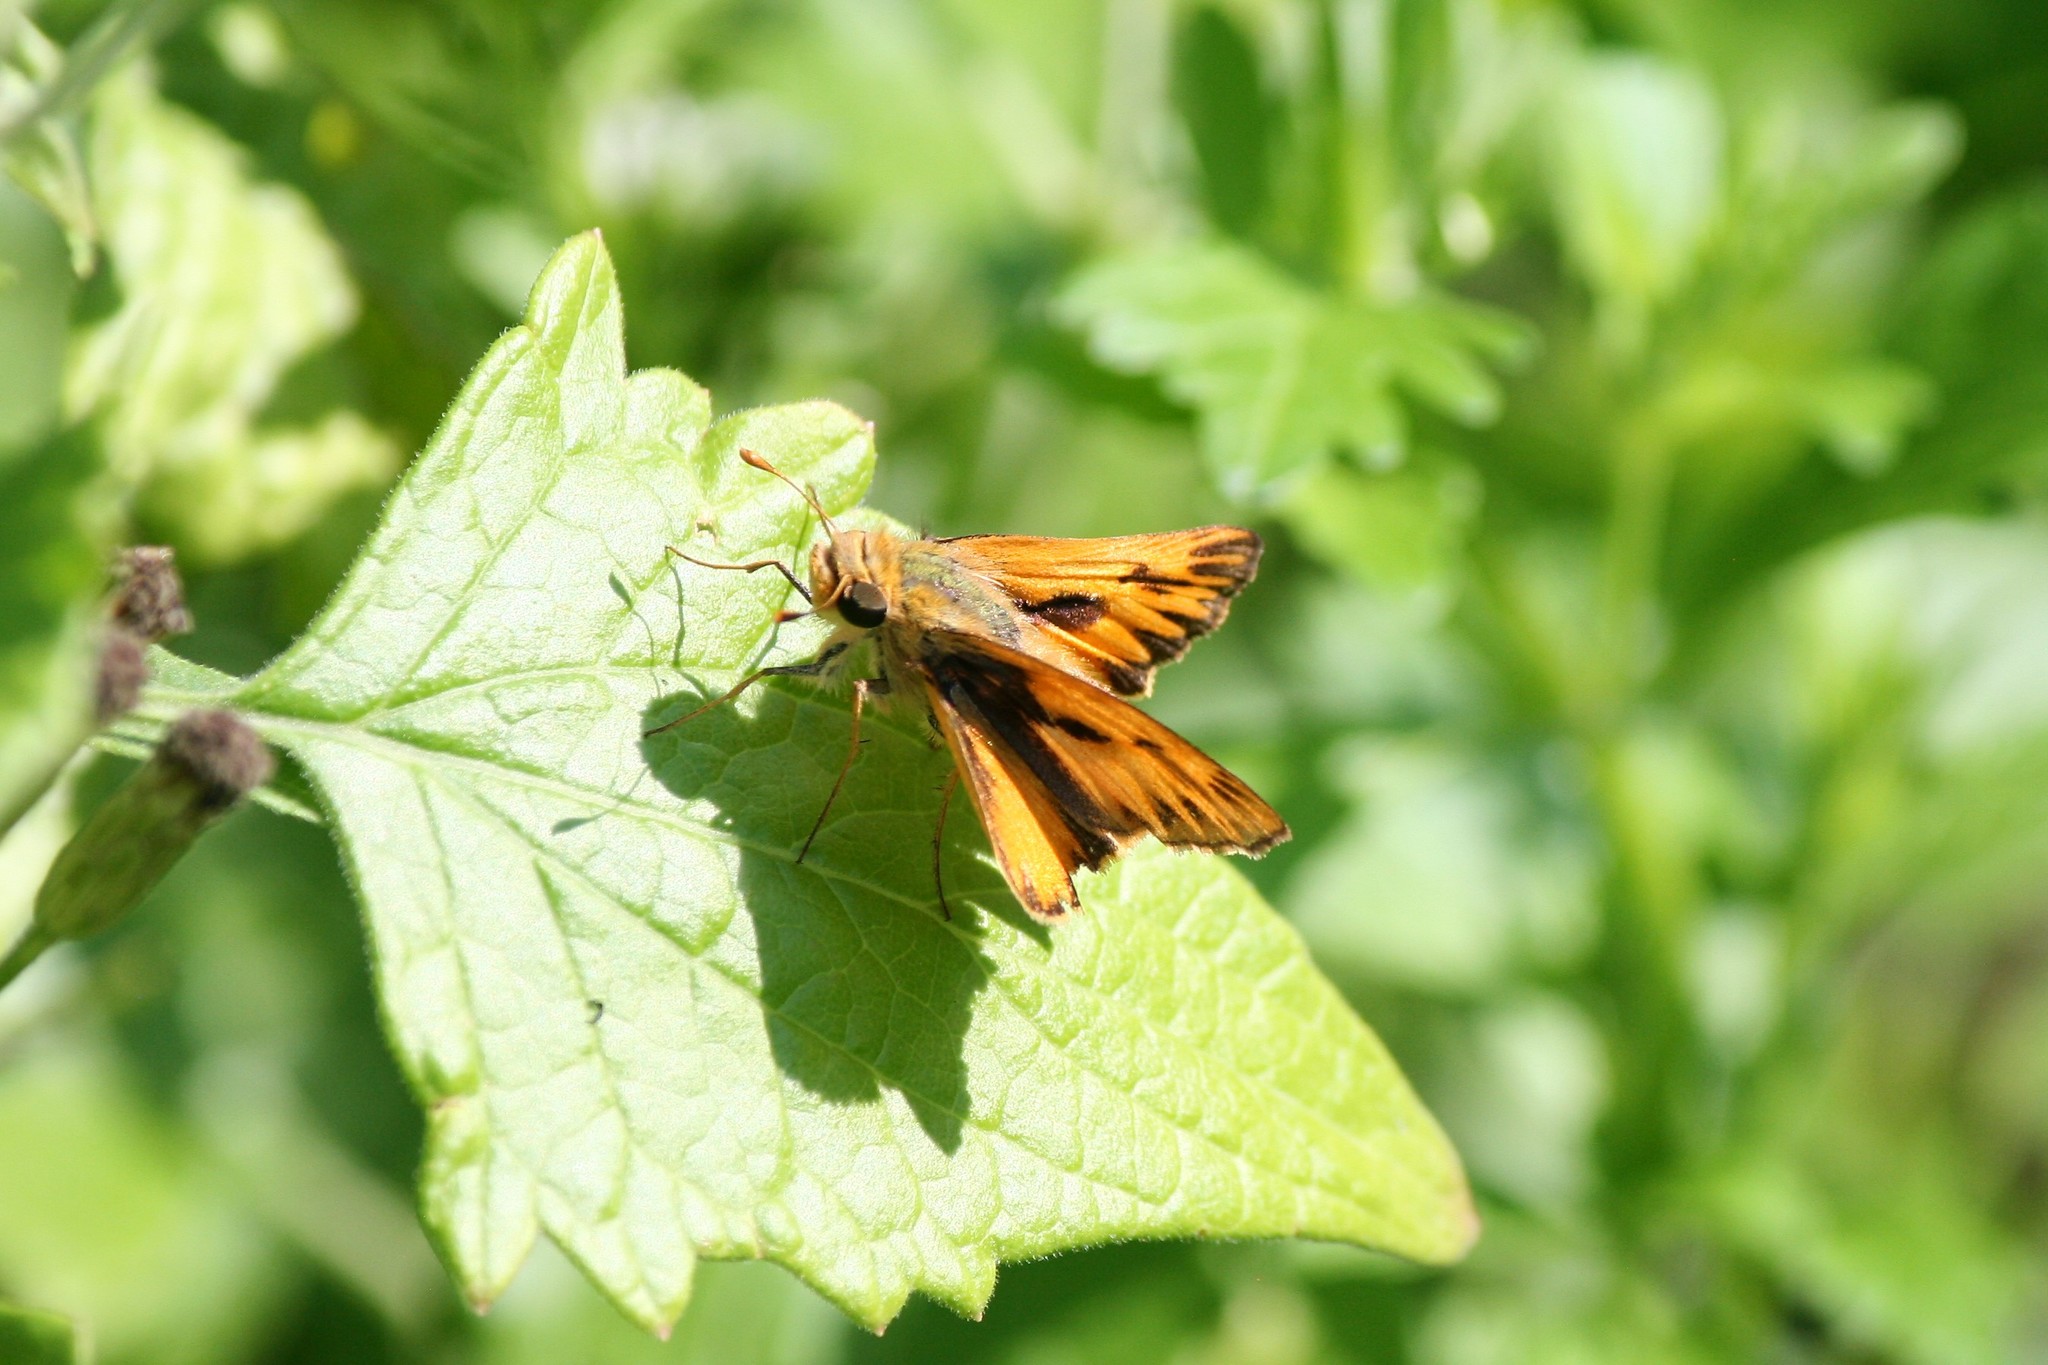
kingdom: Animalia
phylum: Arthropoda
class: Insecta
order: Lepidoptera
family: Hesperiidae
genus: Hylephila
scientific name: Hylephila phyleus
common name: Fiery skipper
